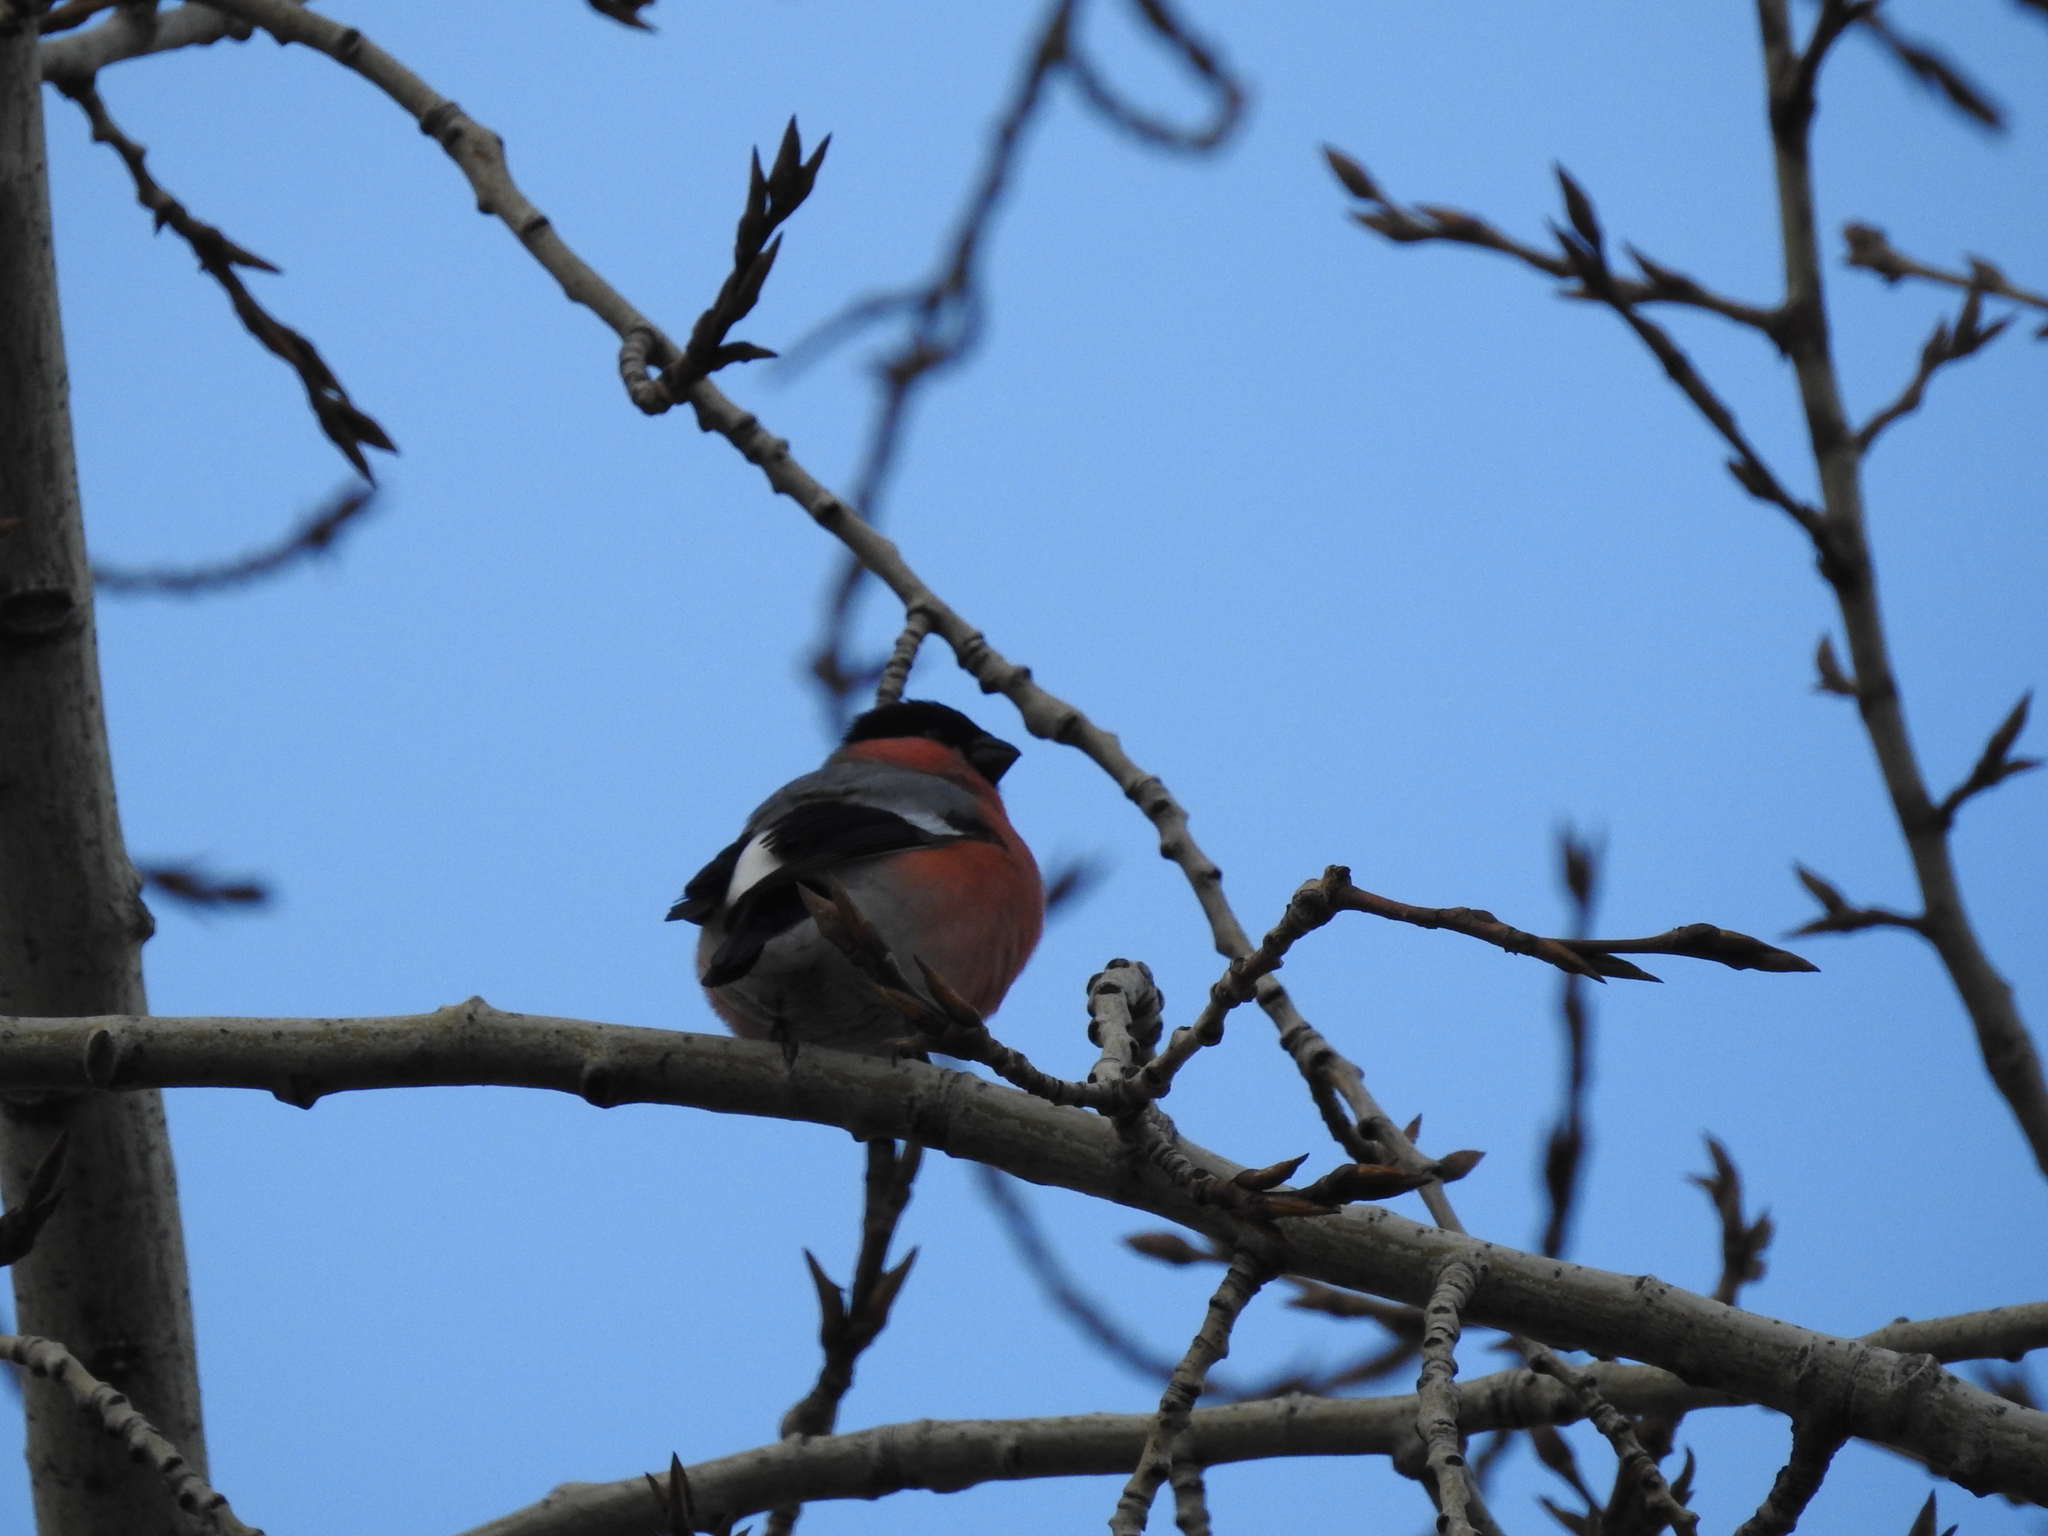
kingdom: Animalia
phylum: Chordata
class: Aves
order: Passeriformes
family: Fringillidae
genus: Pyrrhula
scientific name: Pyrrhula pyrrhula
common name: Eurasian bullfinch
